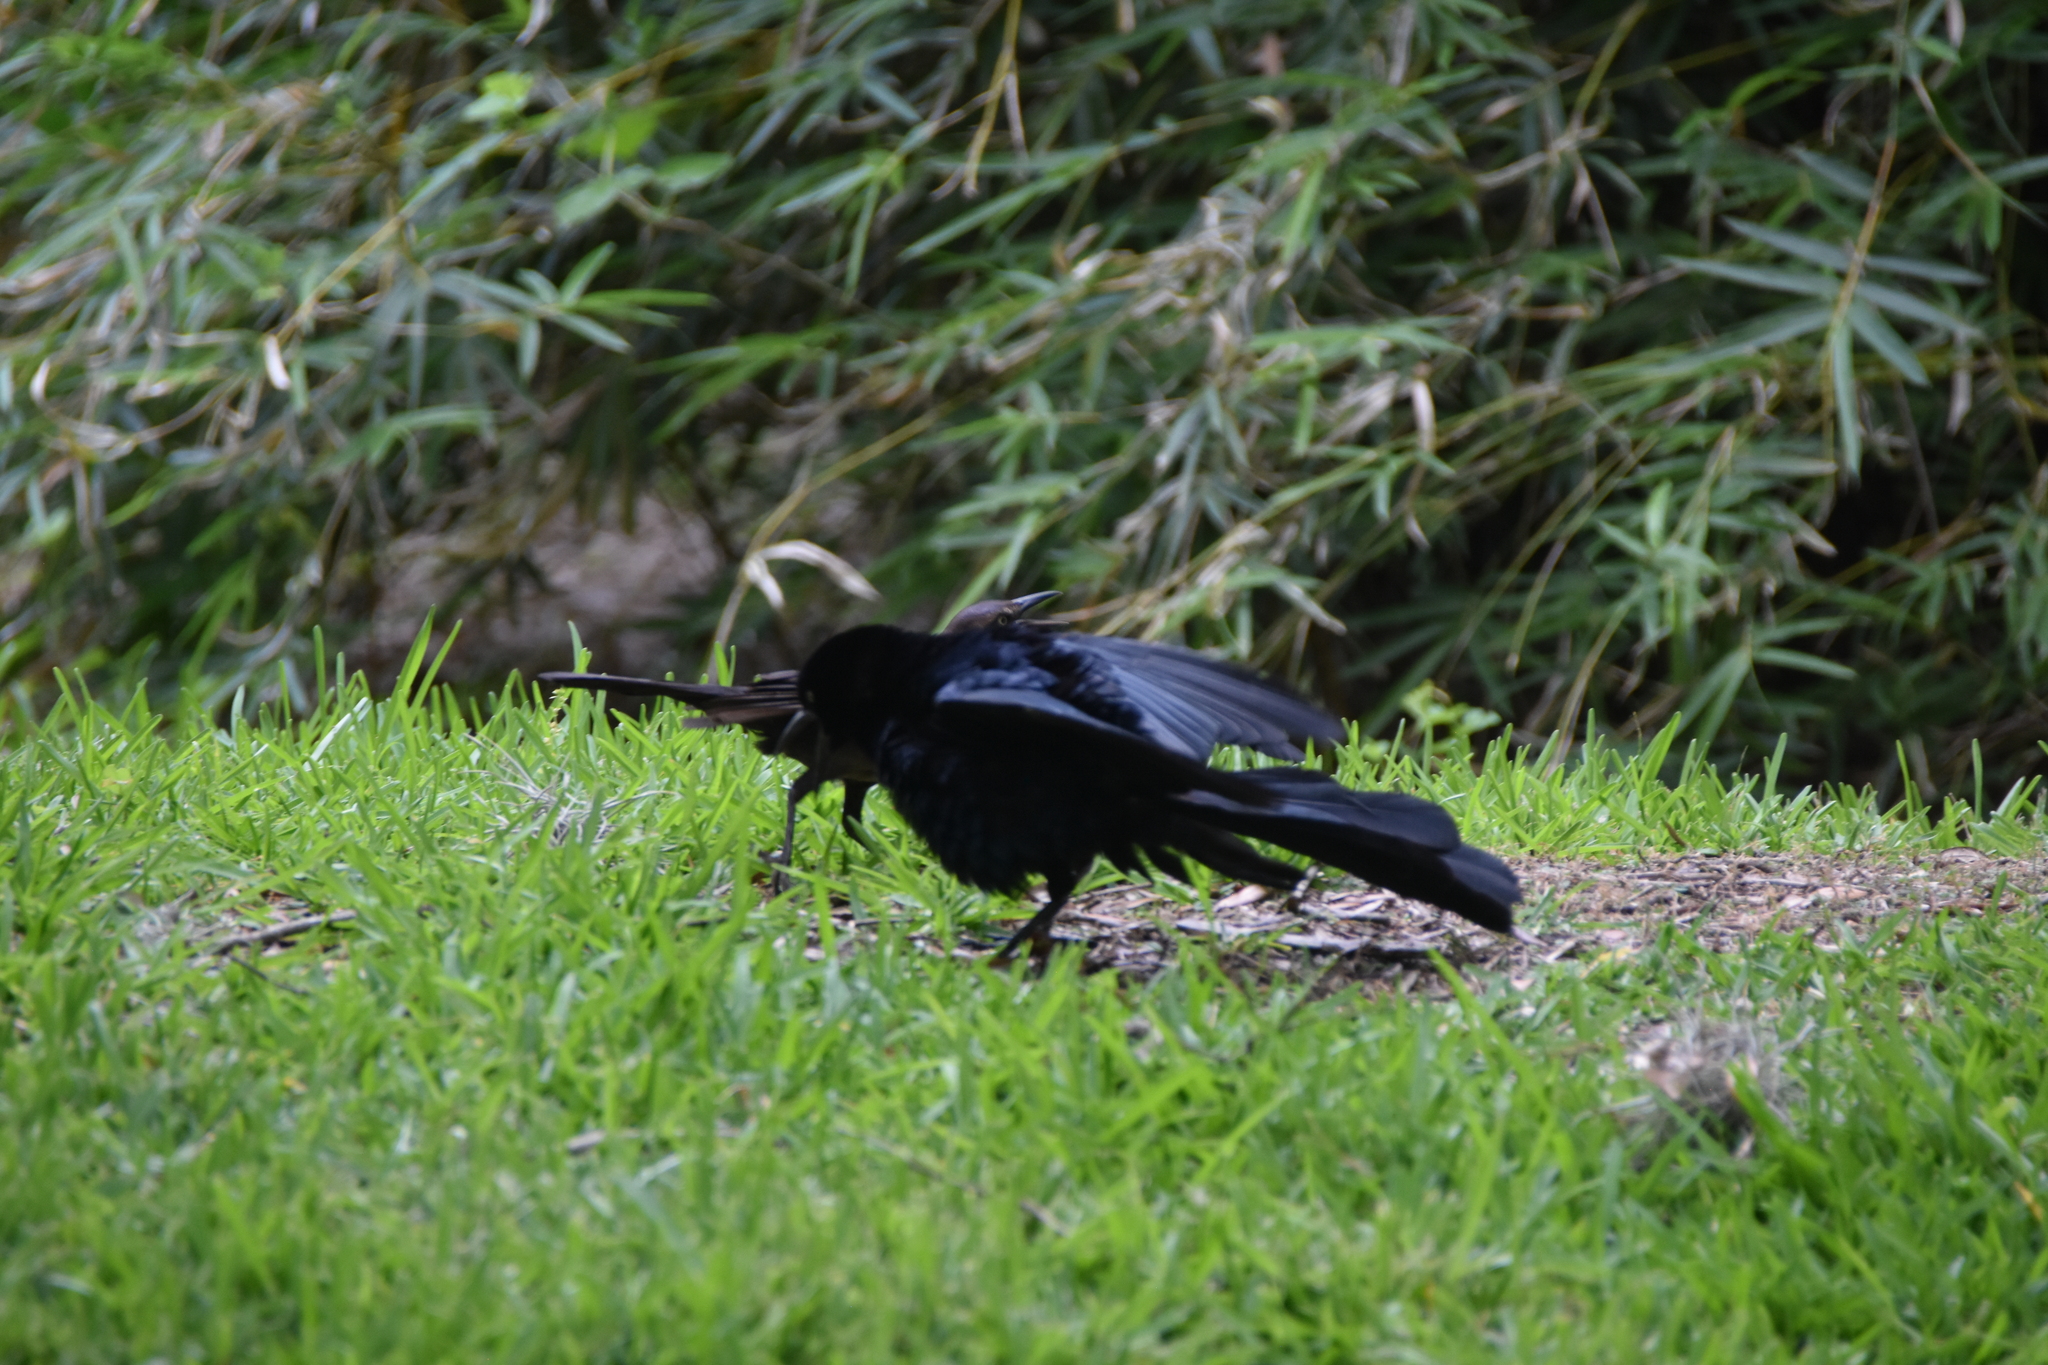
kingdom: Animalia
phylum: Chordata
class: Aves
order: Passeriformes
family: Icteridae
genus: Quiscalus
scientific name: Quiscalus mexicanus
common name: Great-tailed grackle
